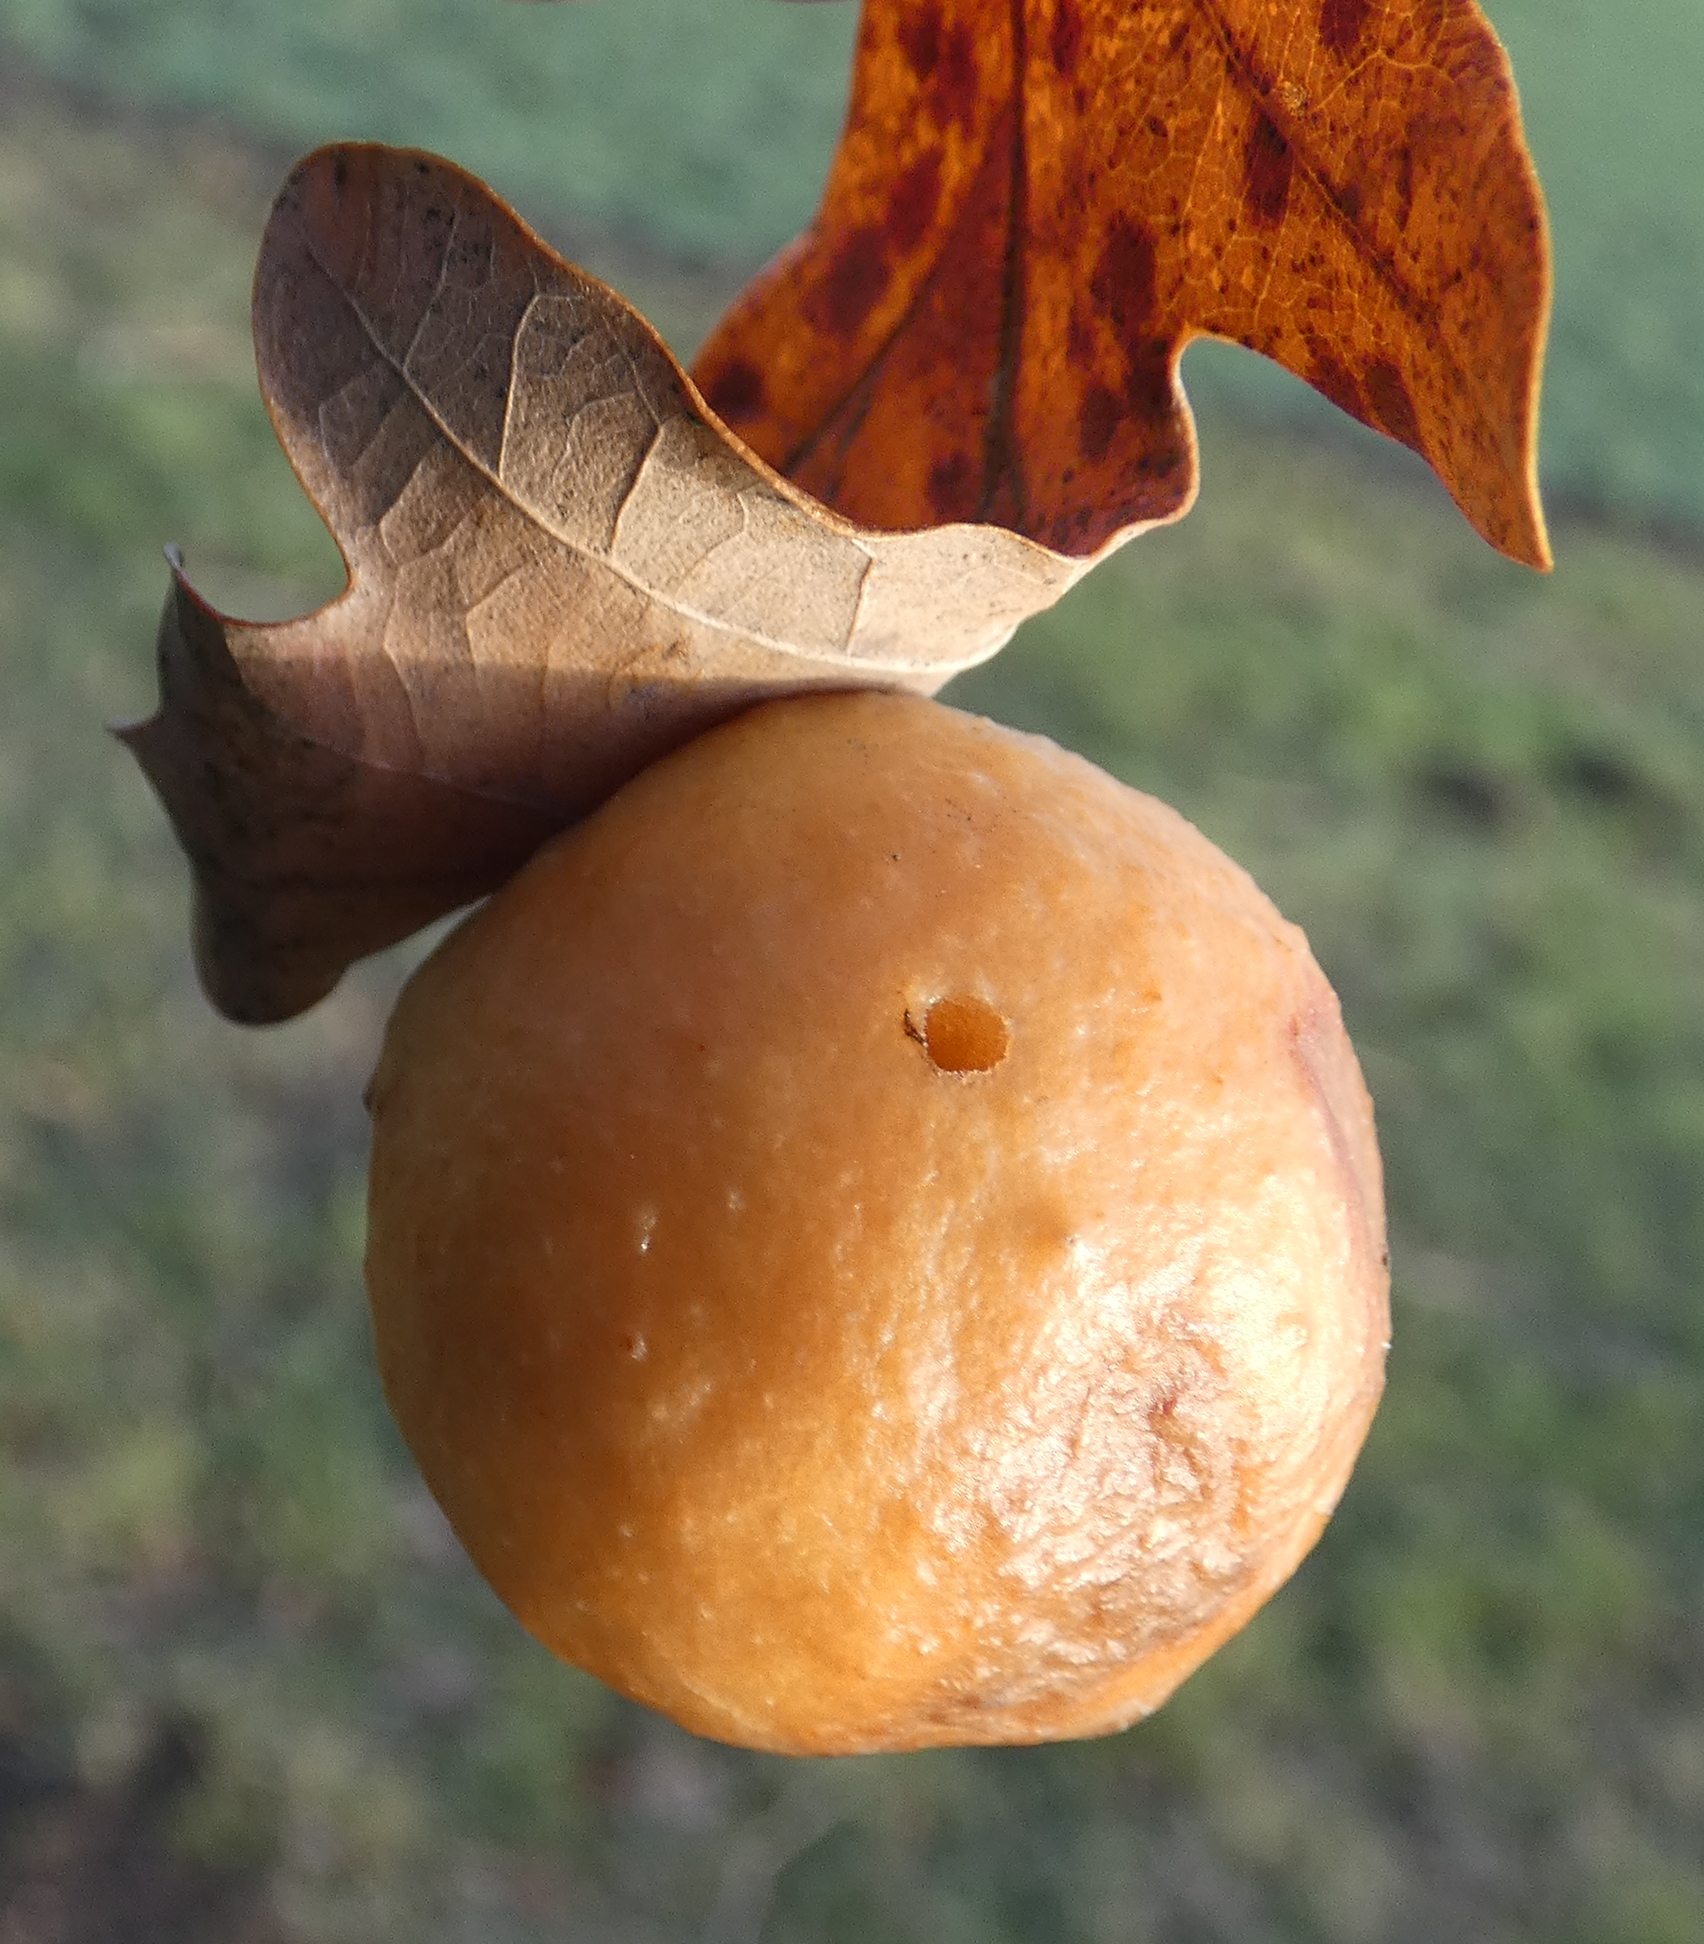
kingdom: Animalia
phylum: Arthropoda
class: Insecta
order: Hymenoptera
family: Cynipidae
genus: Cynips
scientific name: Cynips quercusfolii
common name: Cherry gall
